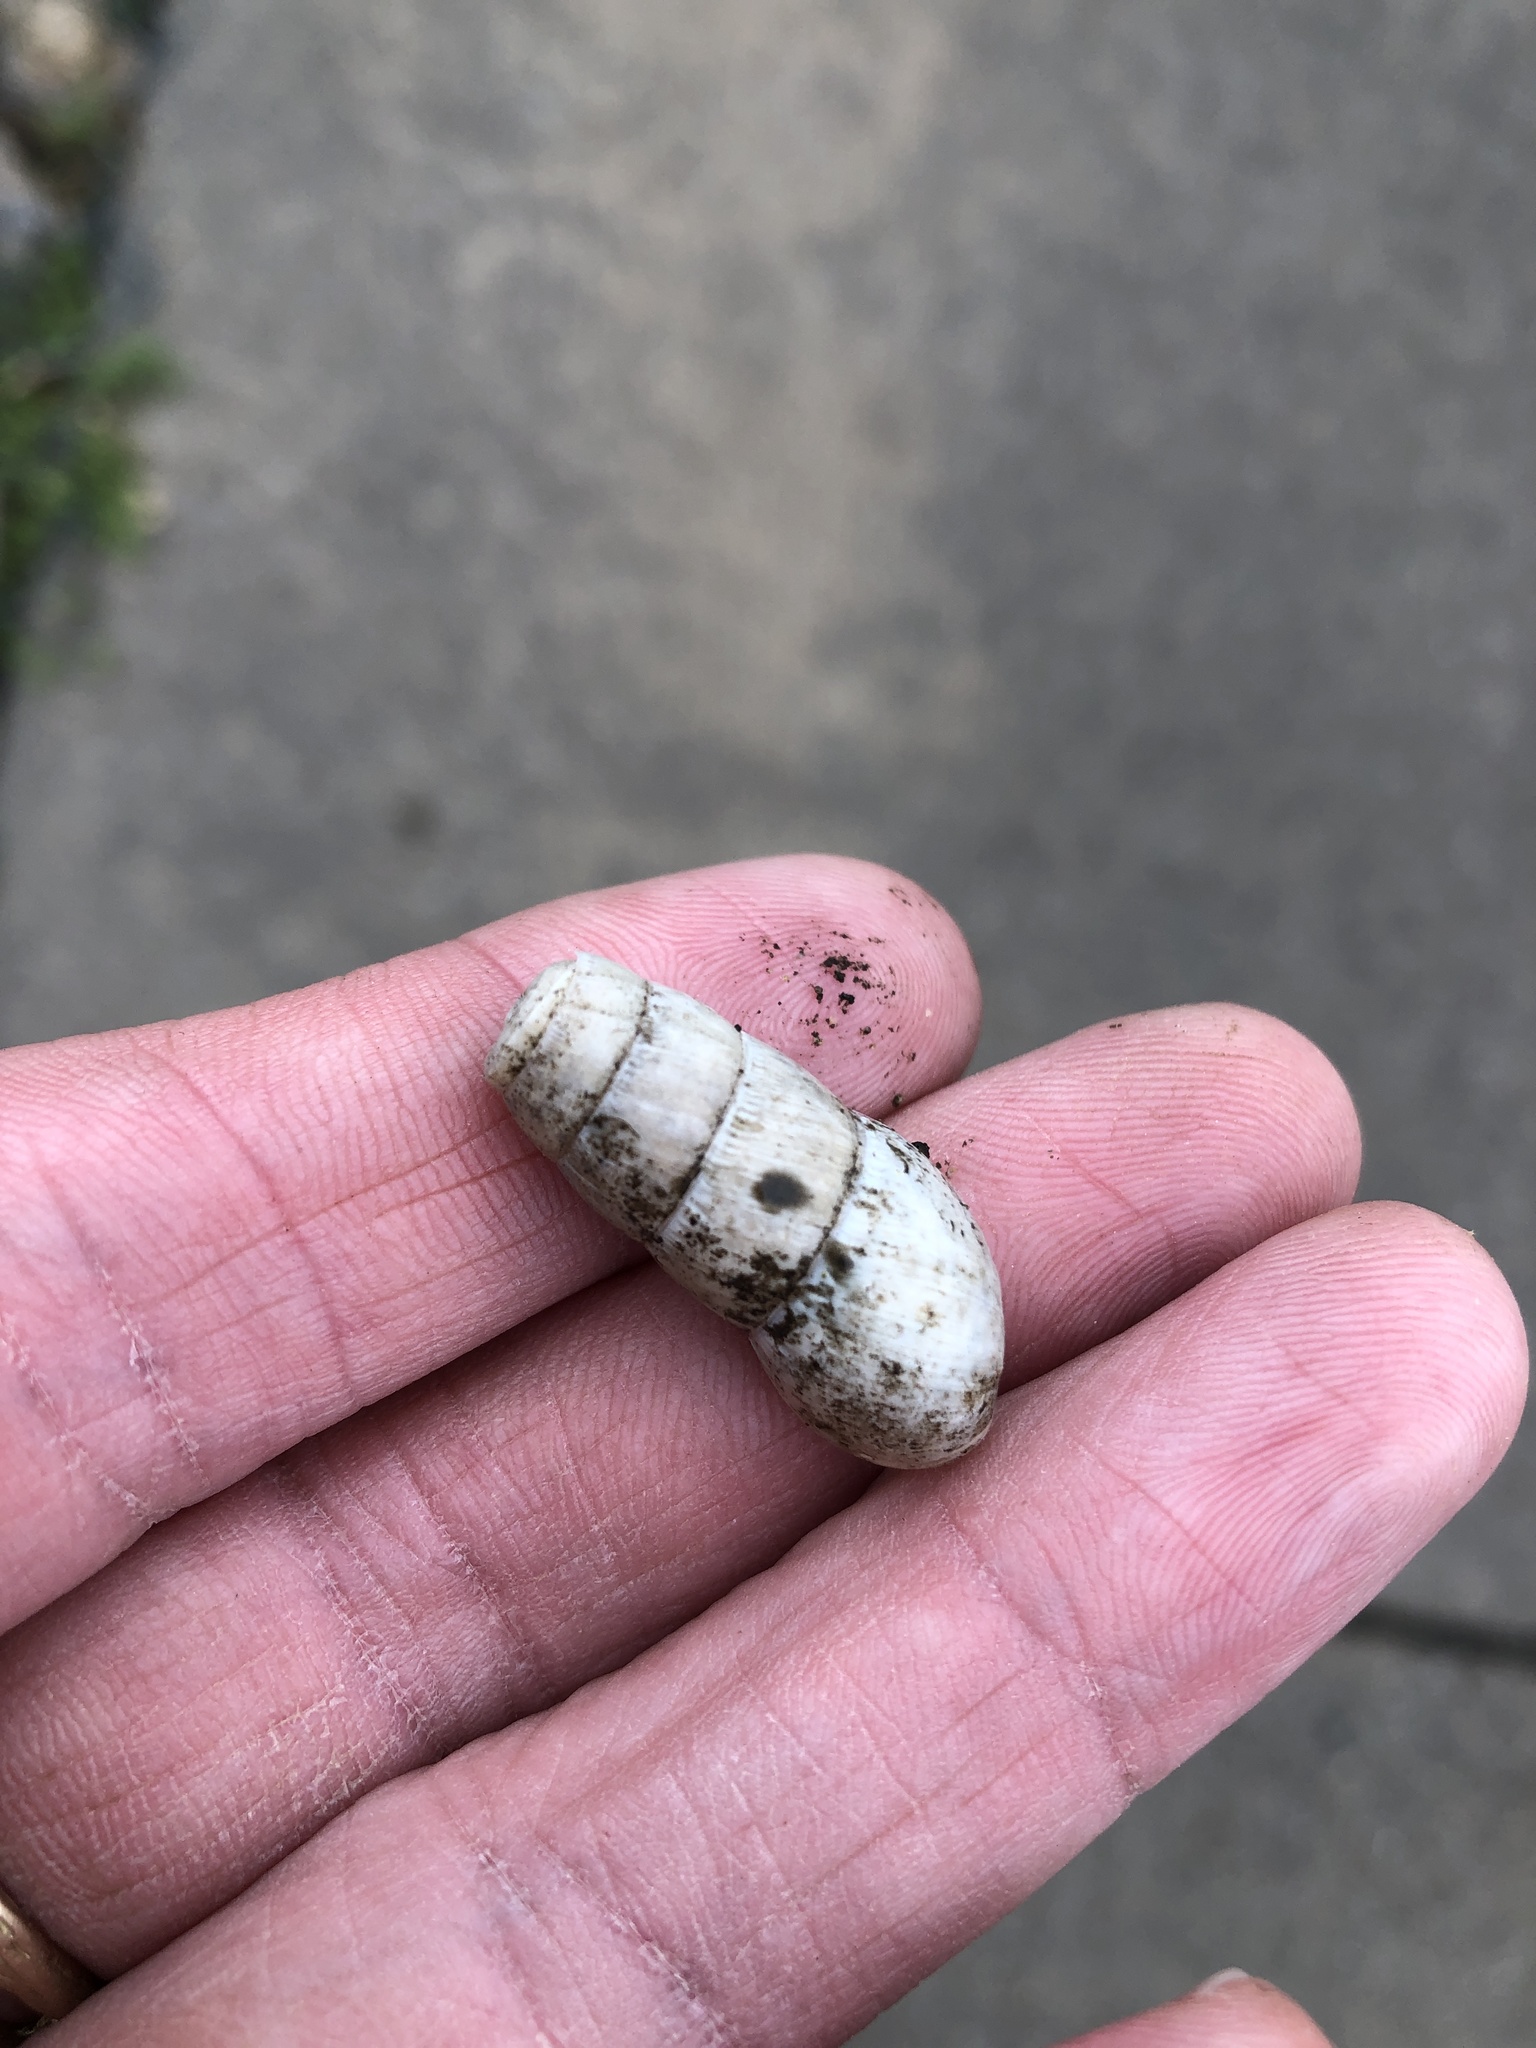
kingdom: Animalia
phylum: Mollusca
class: Gastropoda
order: Stylommatophora
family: Achatinidae
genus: Rumina
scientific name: Rumina decollata
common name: Decollate snail
